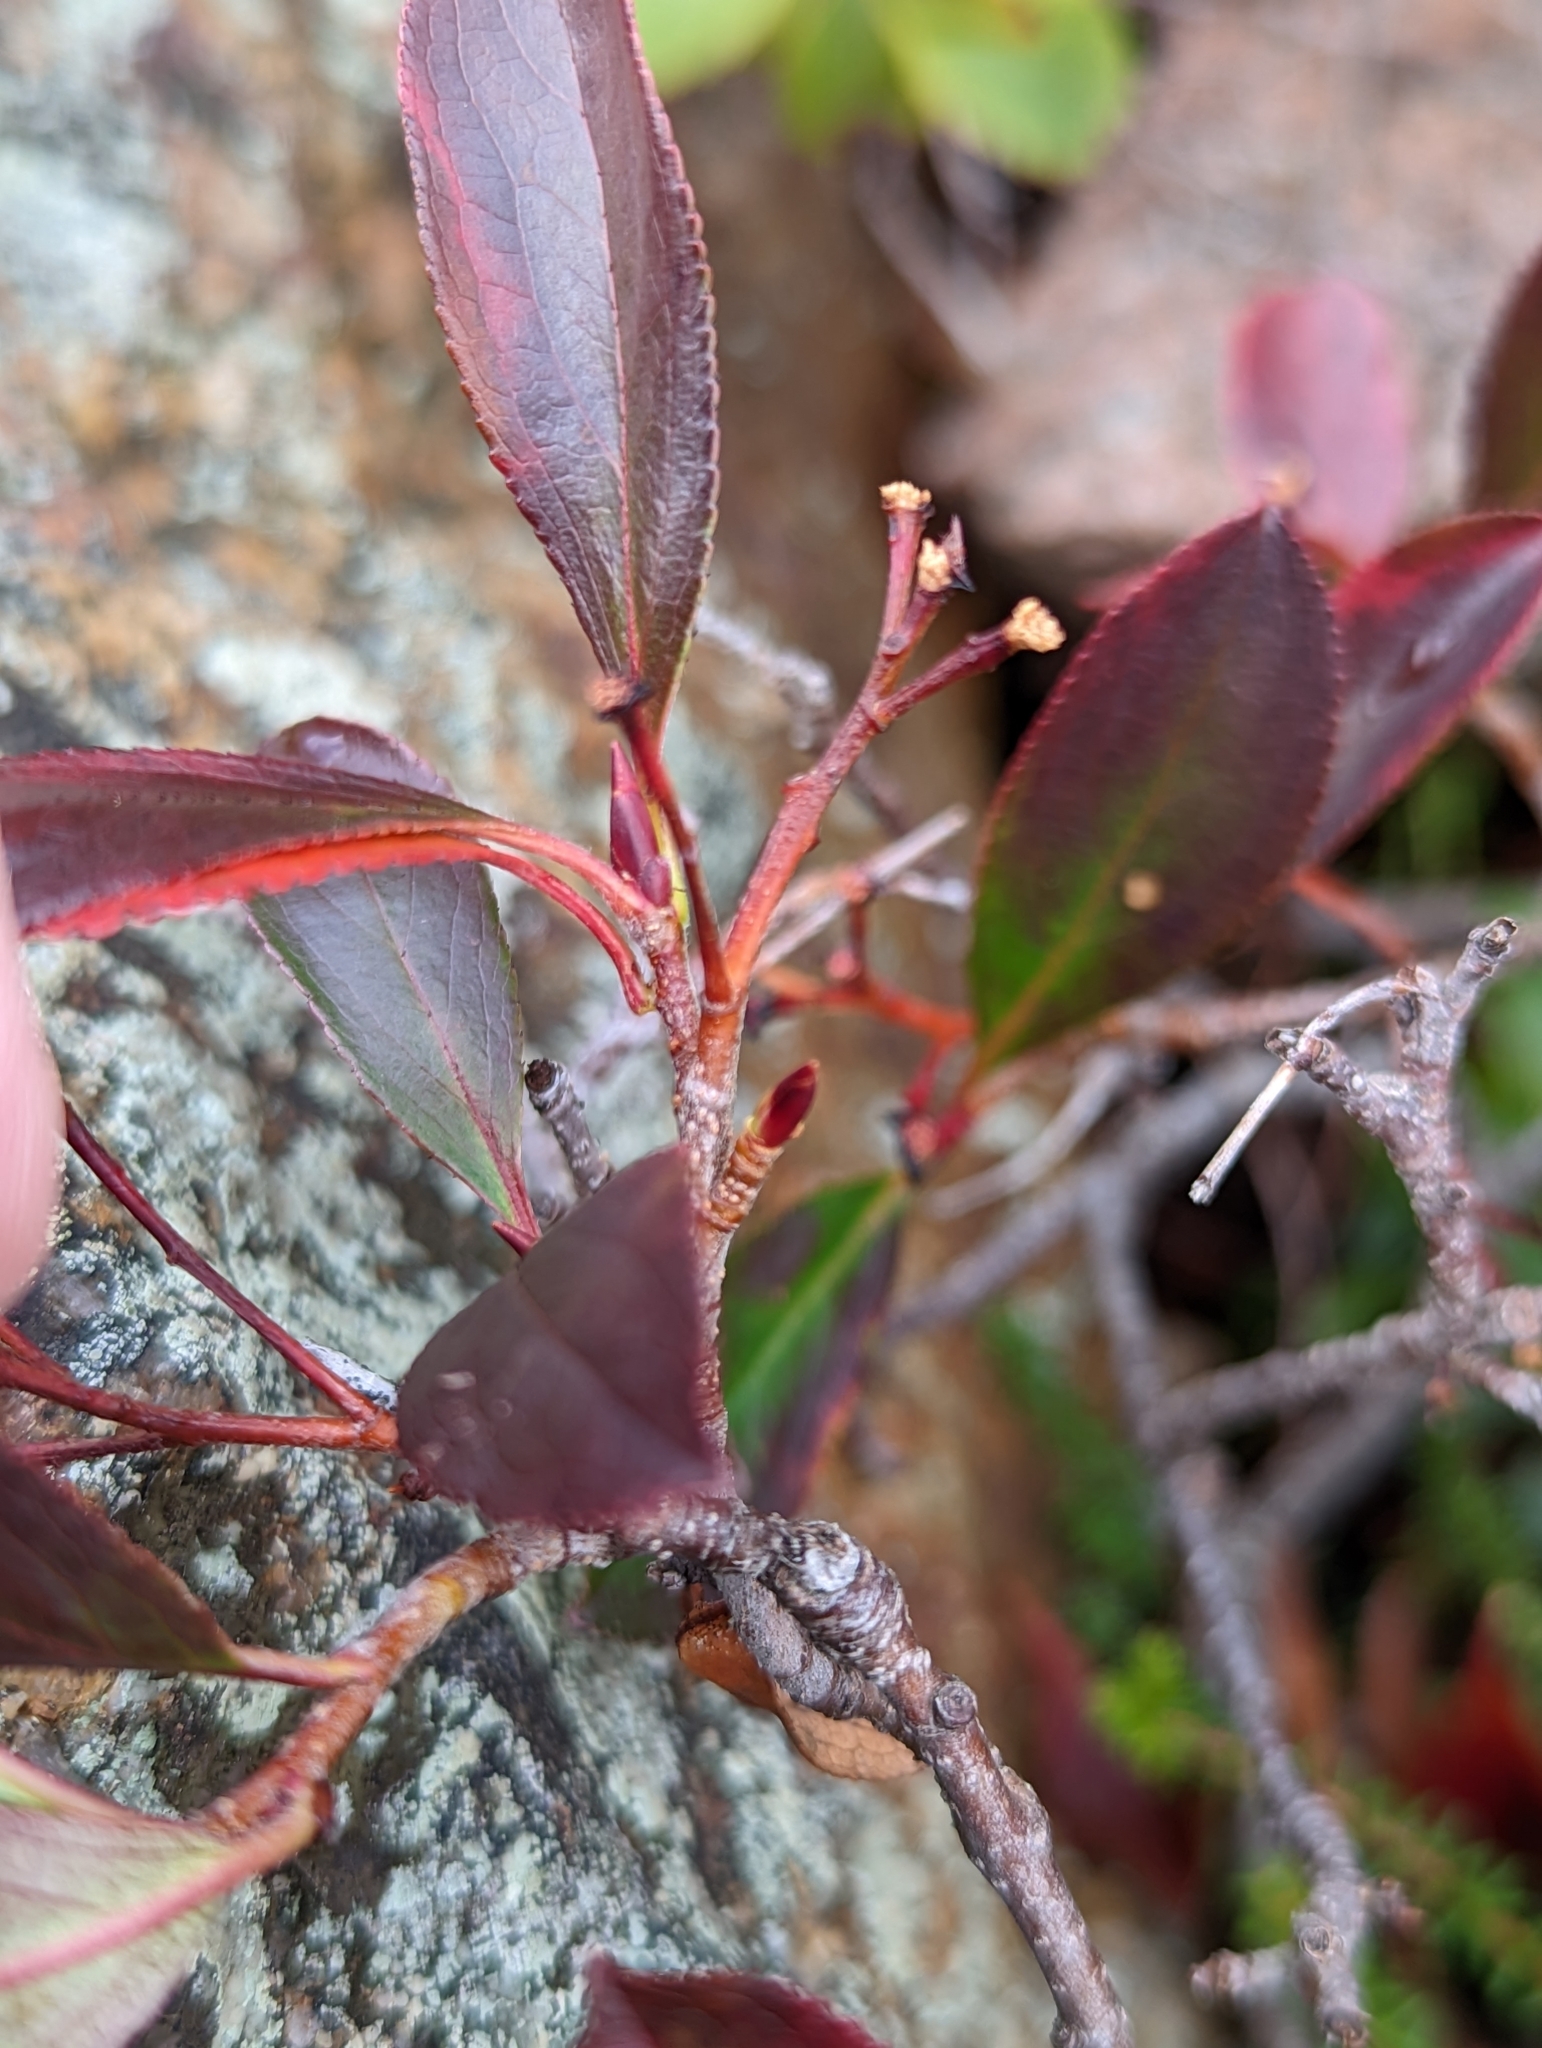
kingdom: Plantae
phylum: Tracheophyta
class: Magnoliopsida
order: Rosales
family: Rosaceae
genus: Aronia
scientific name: Aronia melanocarpa
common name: Black chokeberry
